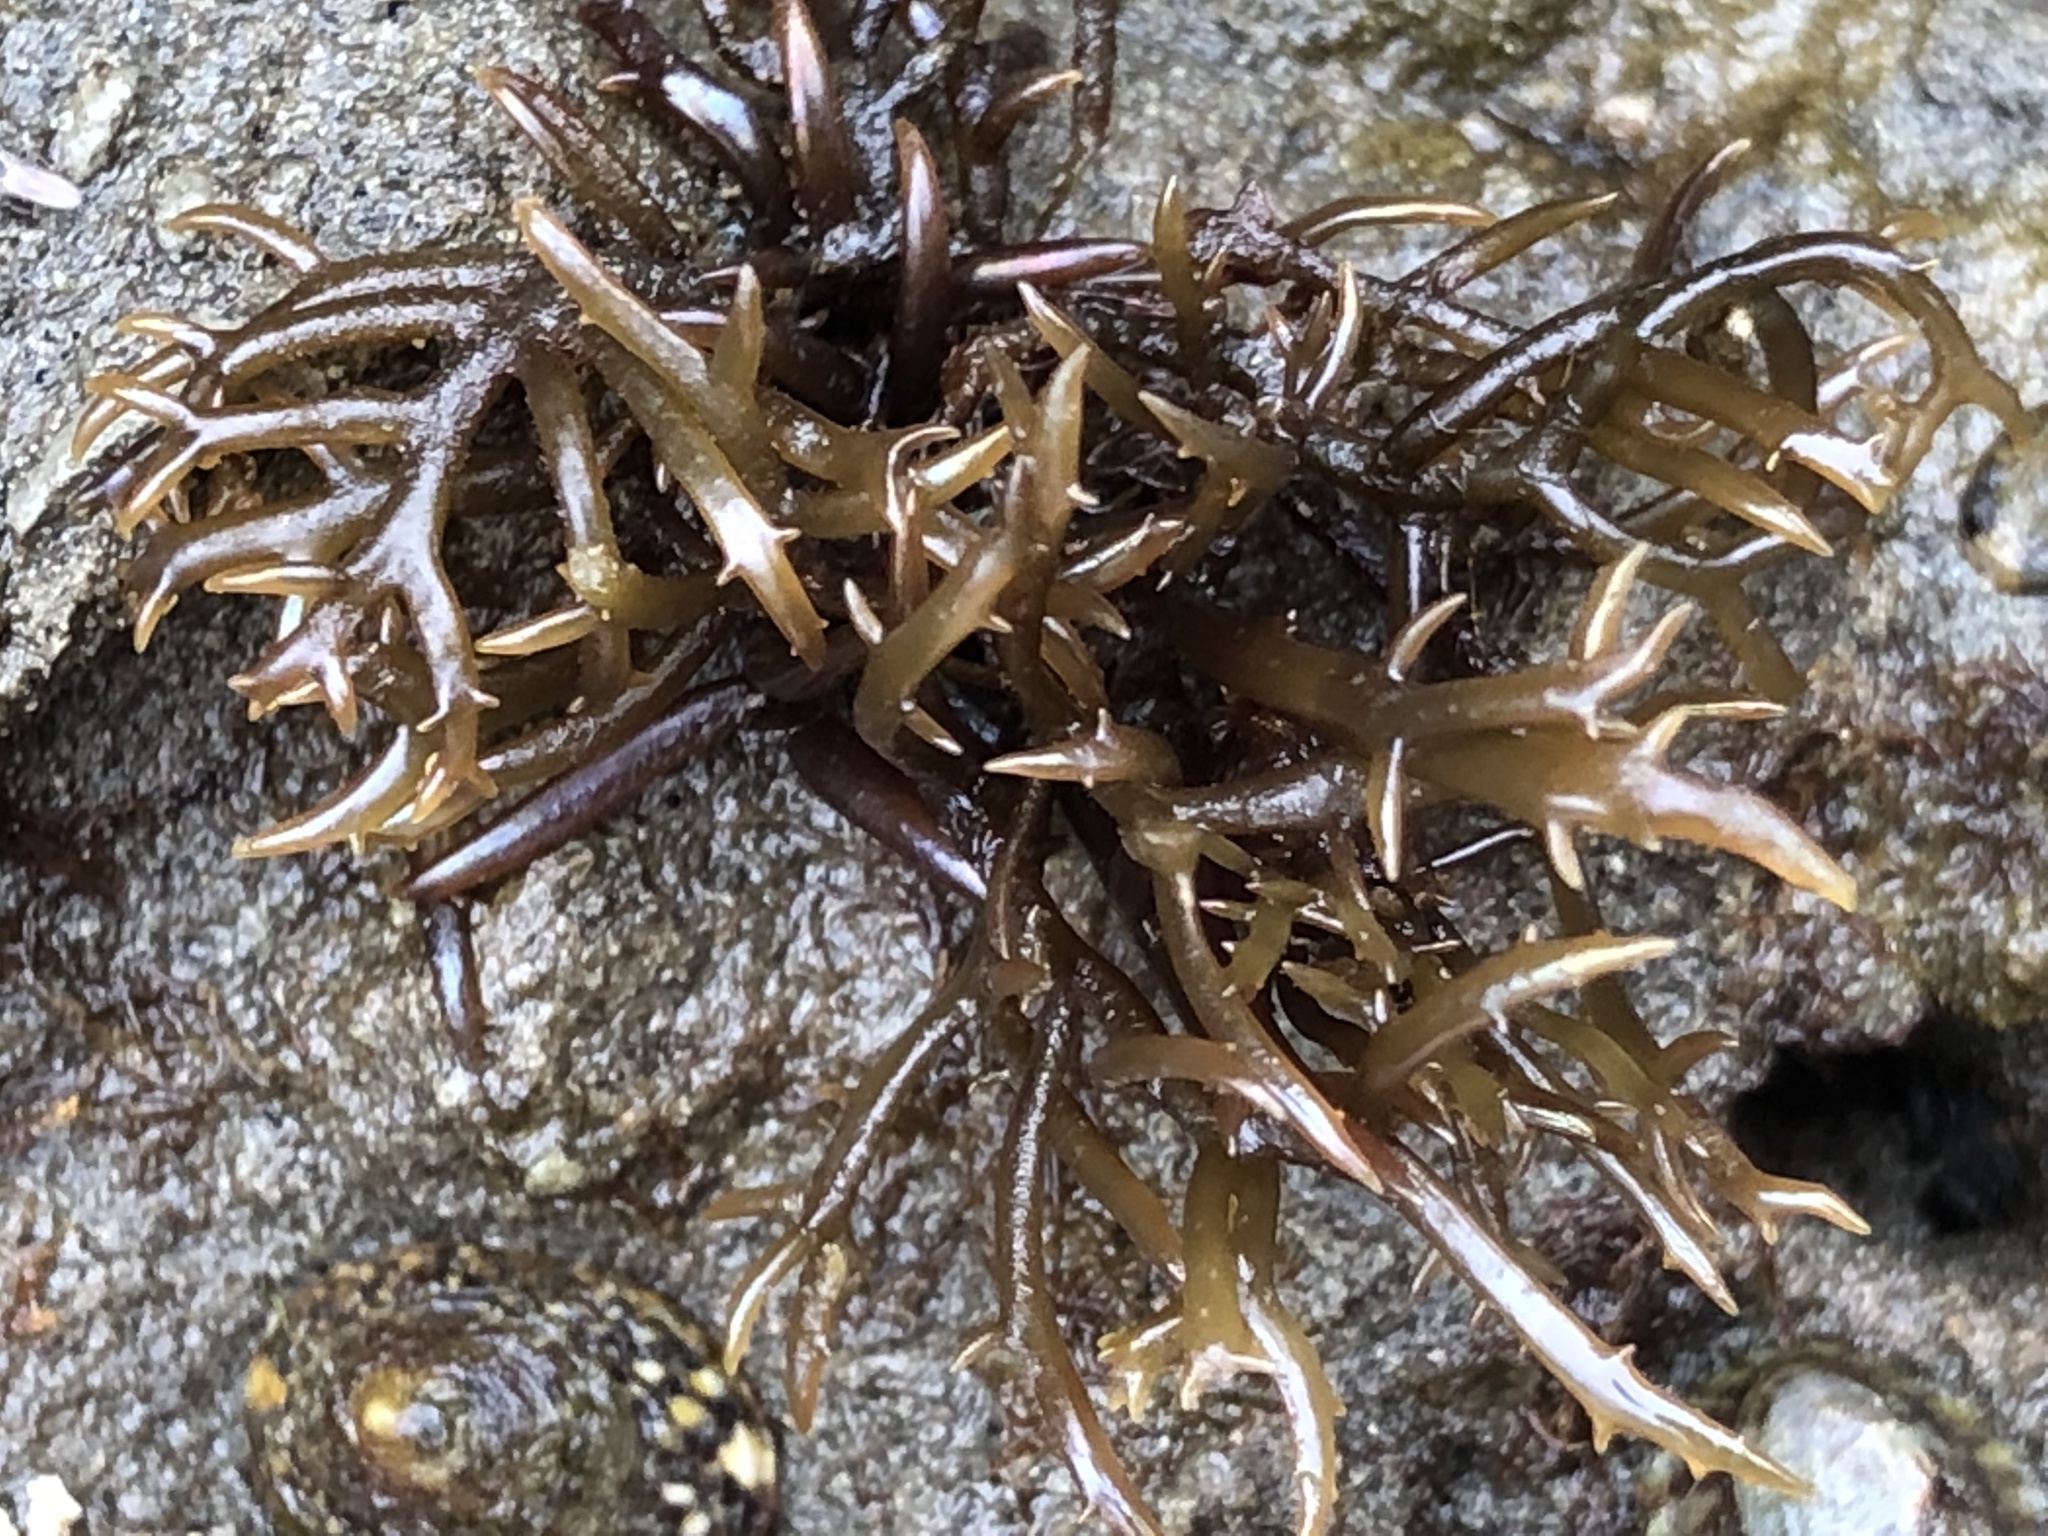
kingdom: Plantae
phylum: Rhodophyta
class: Florideophyceae
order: Gigartinales
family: Gigartinaceae
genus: Chondracanthus
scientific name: Chondracanthus canaliculatus
